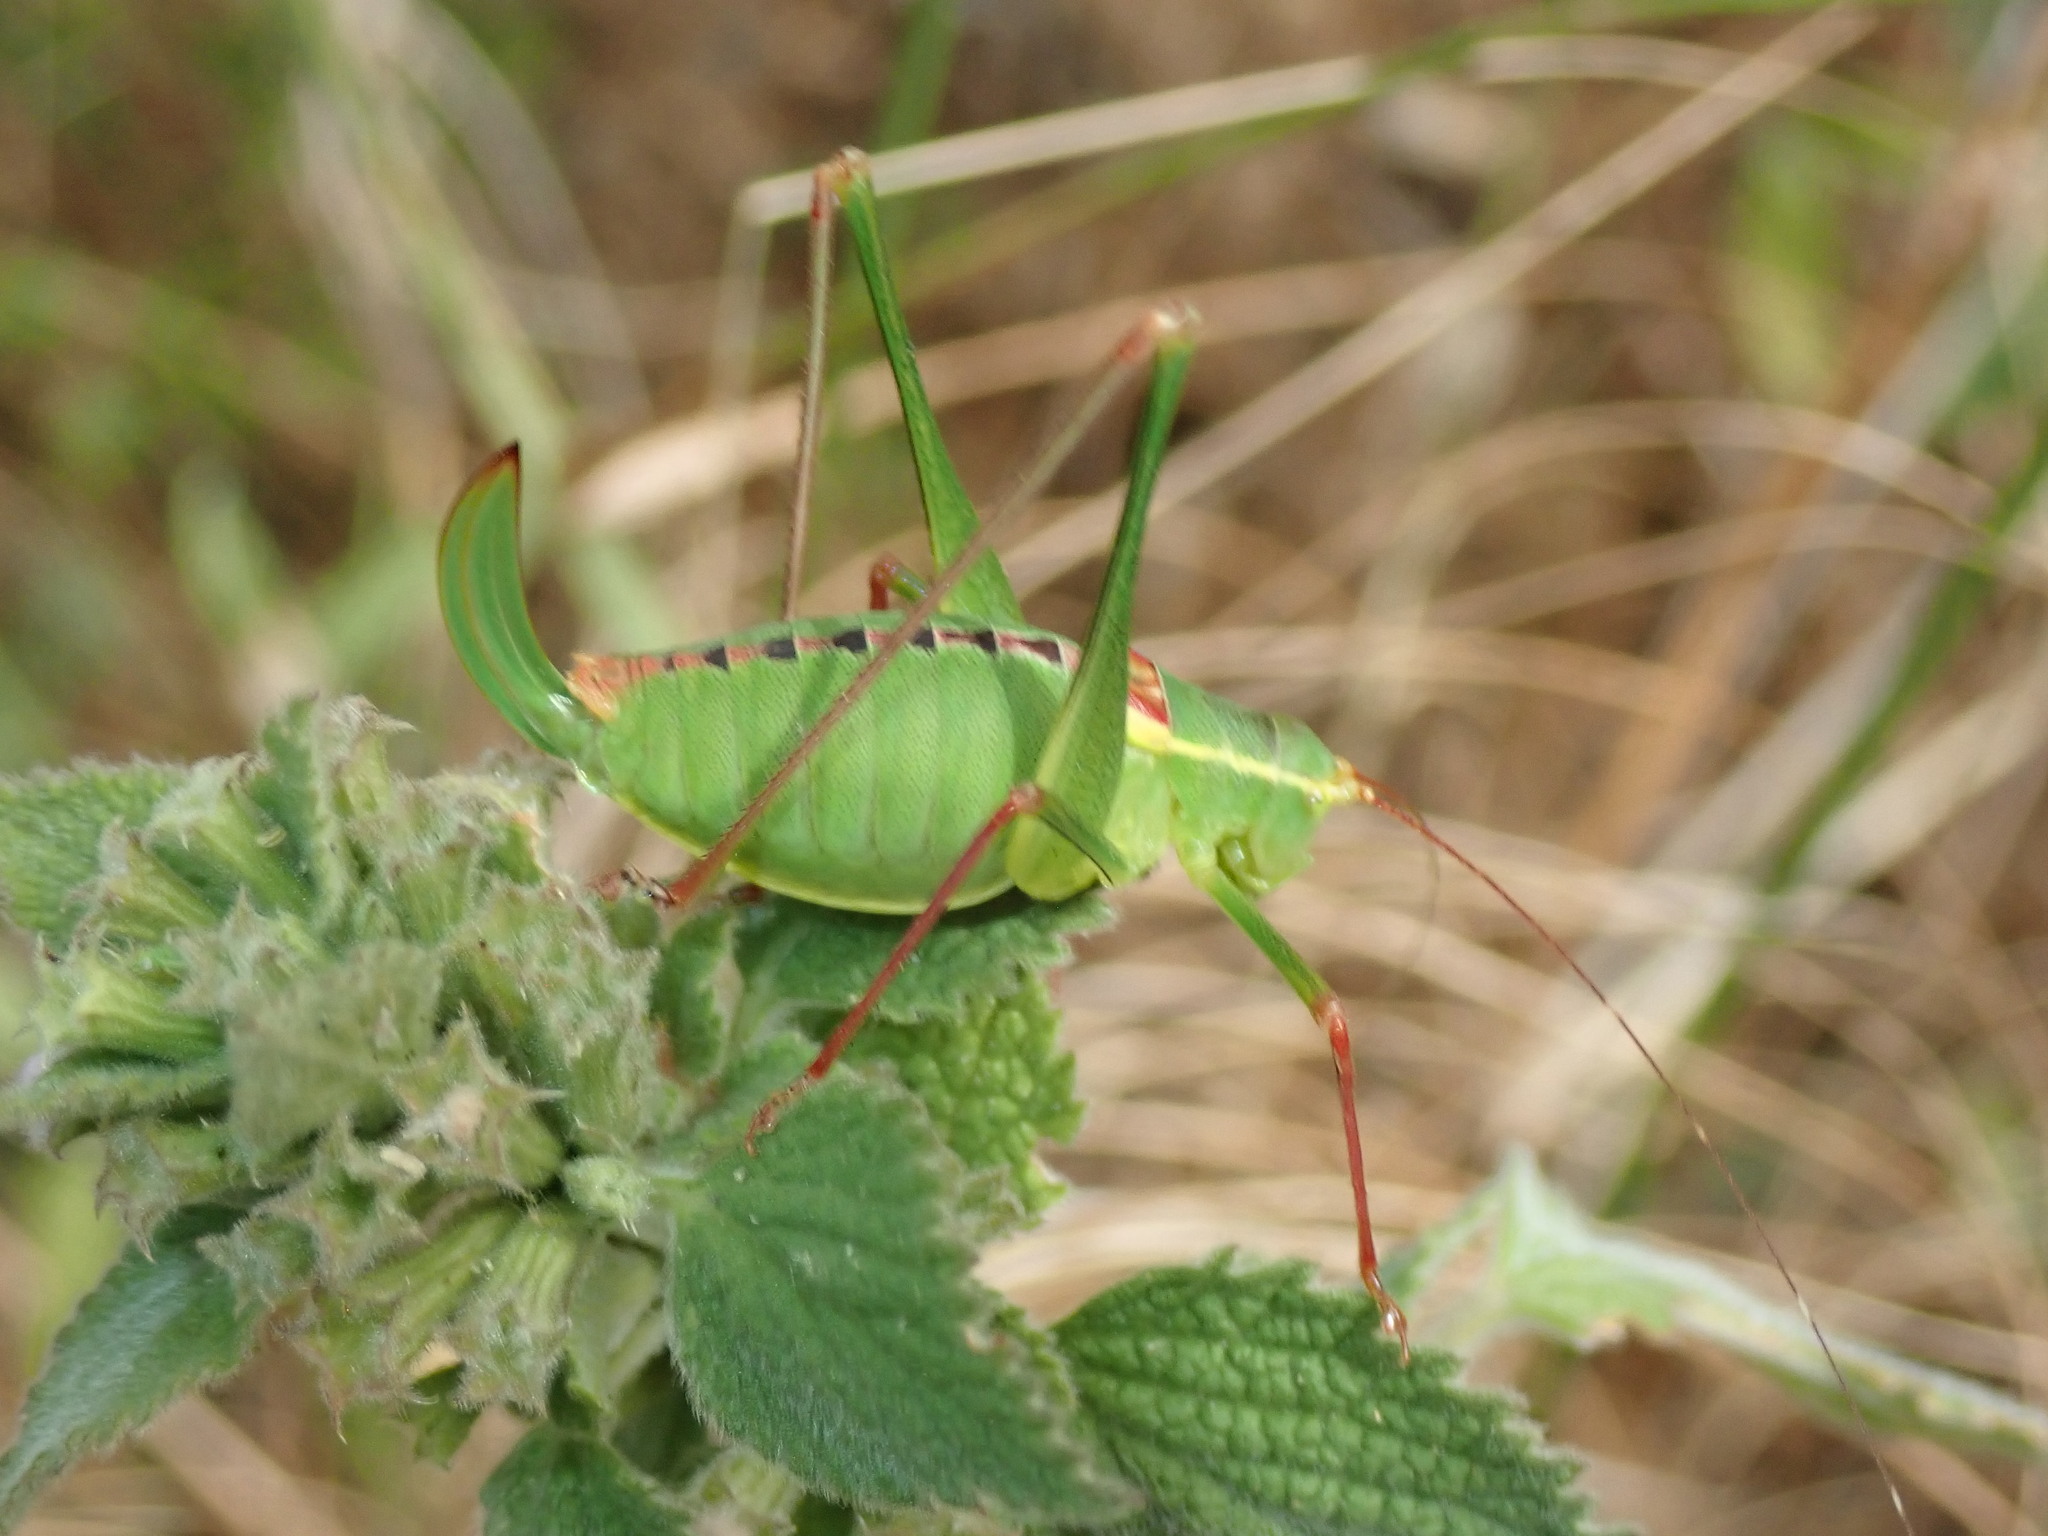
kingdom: Animalia
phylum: Arthropoda
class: Insecta
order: Orthoptera
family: Tettigoniidae
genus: Leptophyes
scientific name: Leptophyes laticauda
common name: Long-tailed speckled bush-cricket
